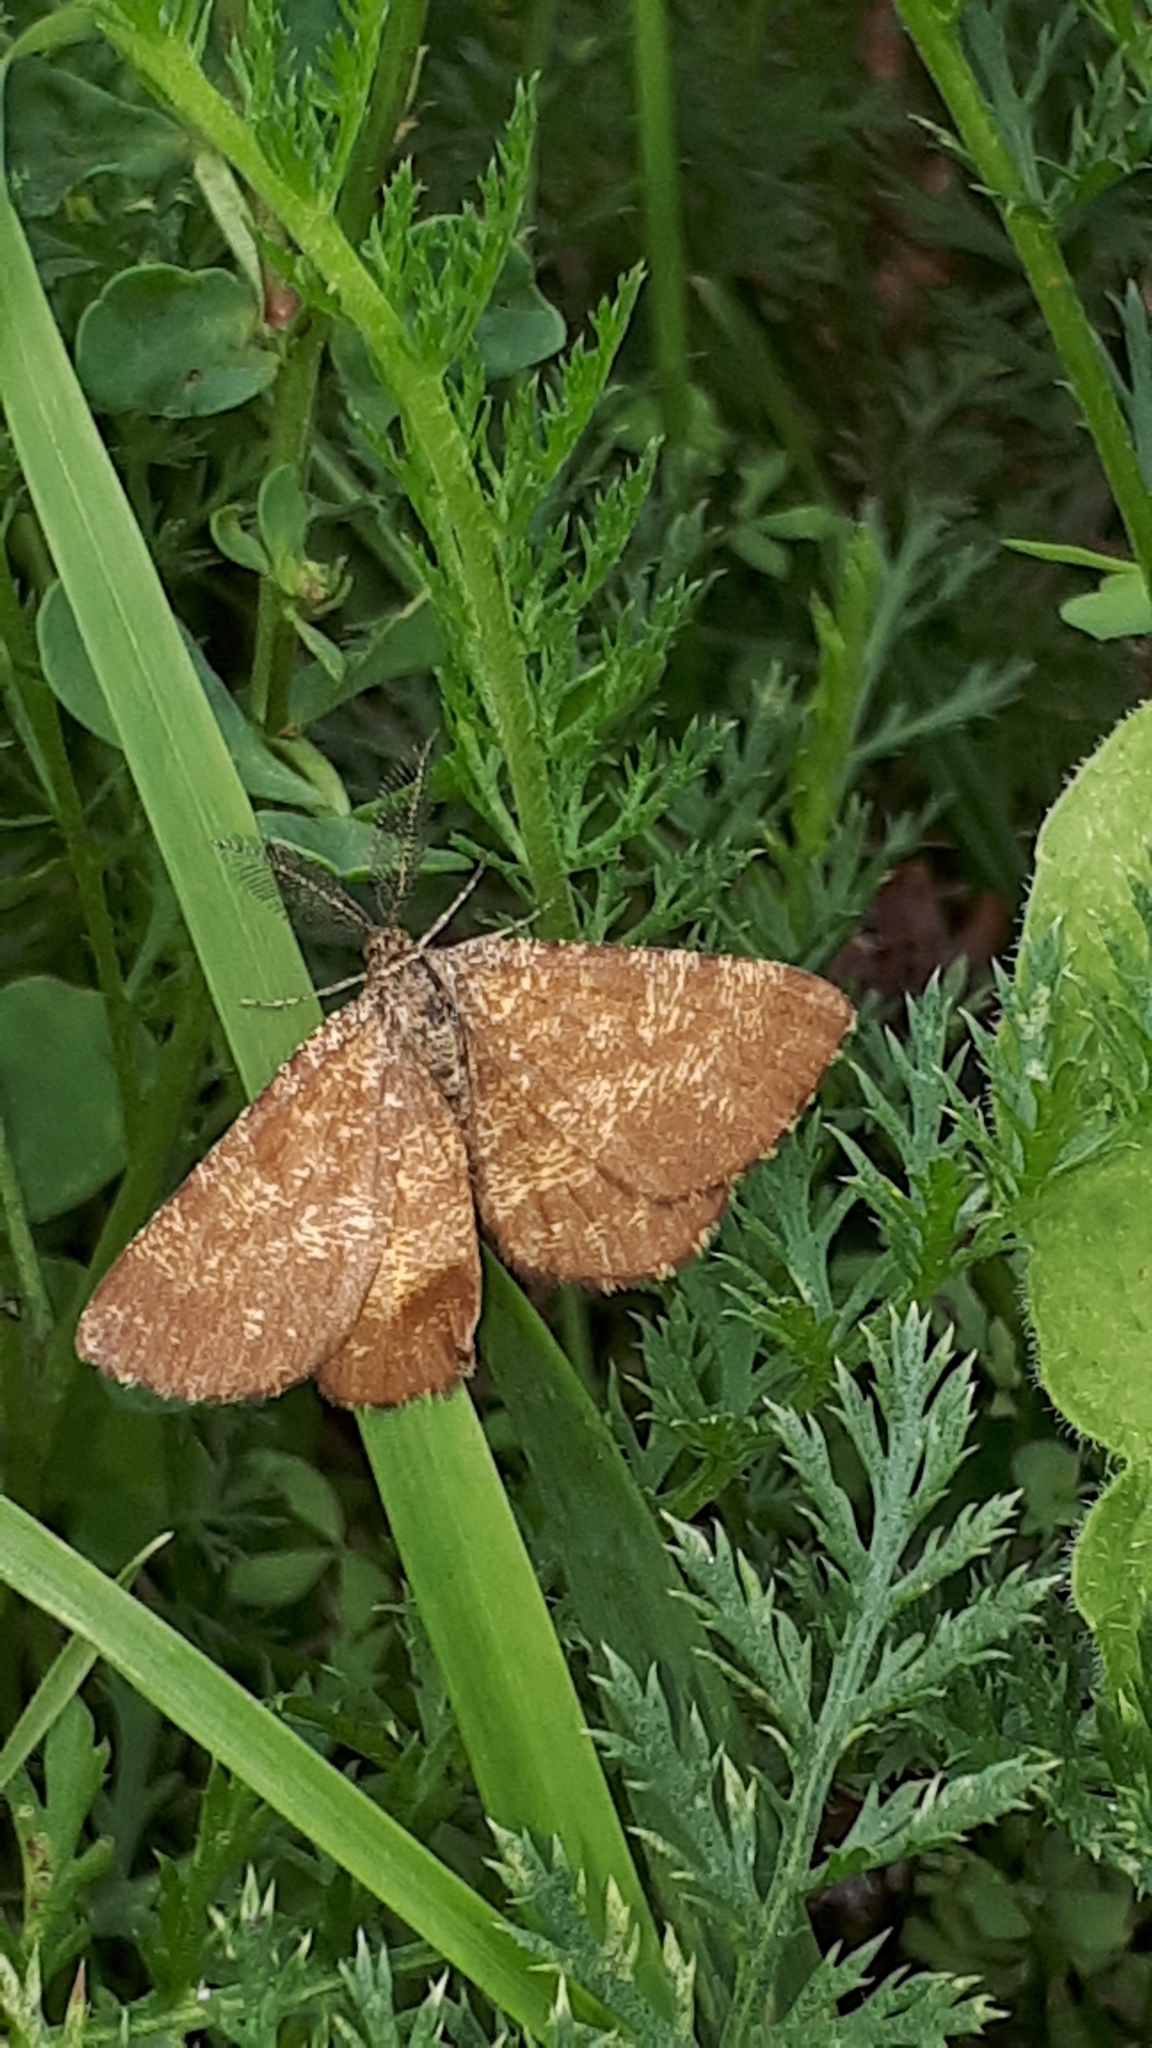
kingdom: Animalia
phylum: Arthropoda
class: Insecta
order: Lepidoptera
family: Geometridae
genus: Ematurga
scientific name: Ematurga atomaria
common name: Common heath
